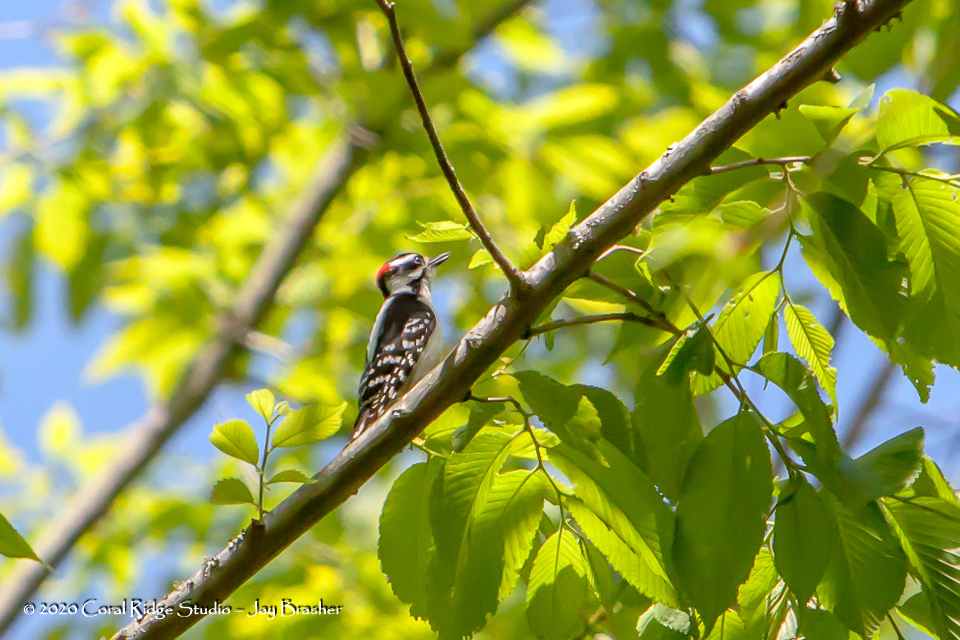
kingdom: Animalia
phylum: Chordata
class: Aves
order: Piciformes
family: Picidae
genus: Leuconotopicus
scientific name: Leuconotopicus villosus
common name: Hairy woodpecker
